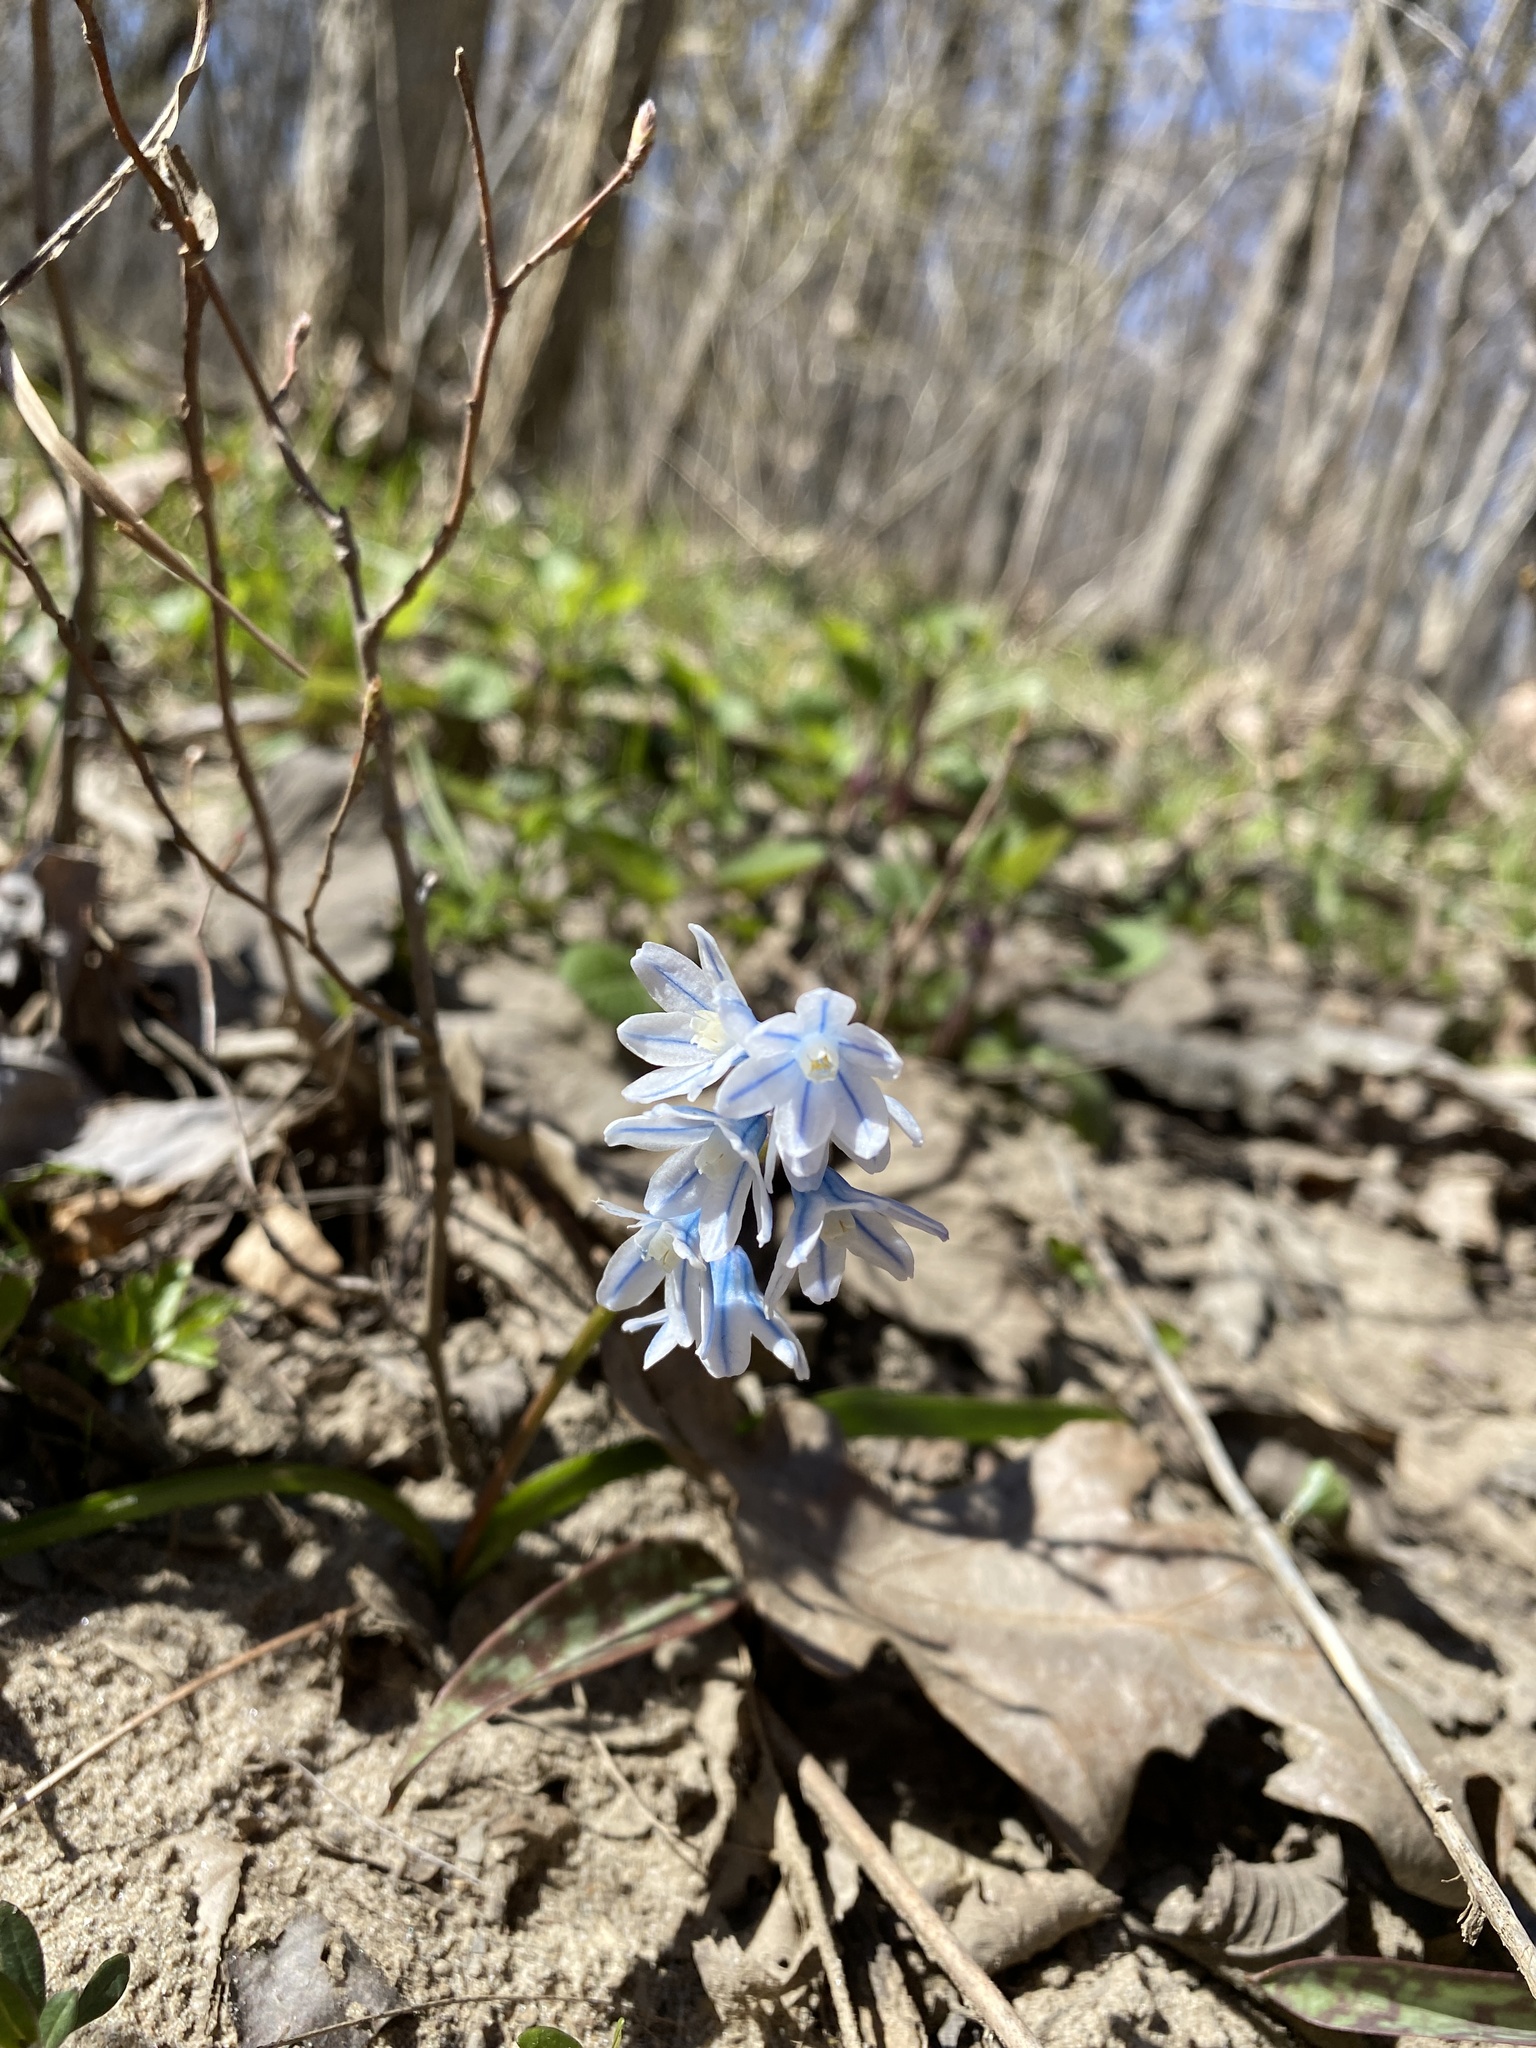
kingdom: Plantae
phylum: Tracheophyta
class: Liliopsida
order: Asparagales
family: Asparagaceae
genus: Puschkinia
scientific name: Puschkinia scilloides
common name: Striped squill
